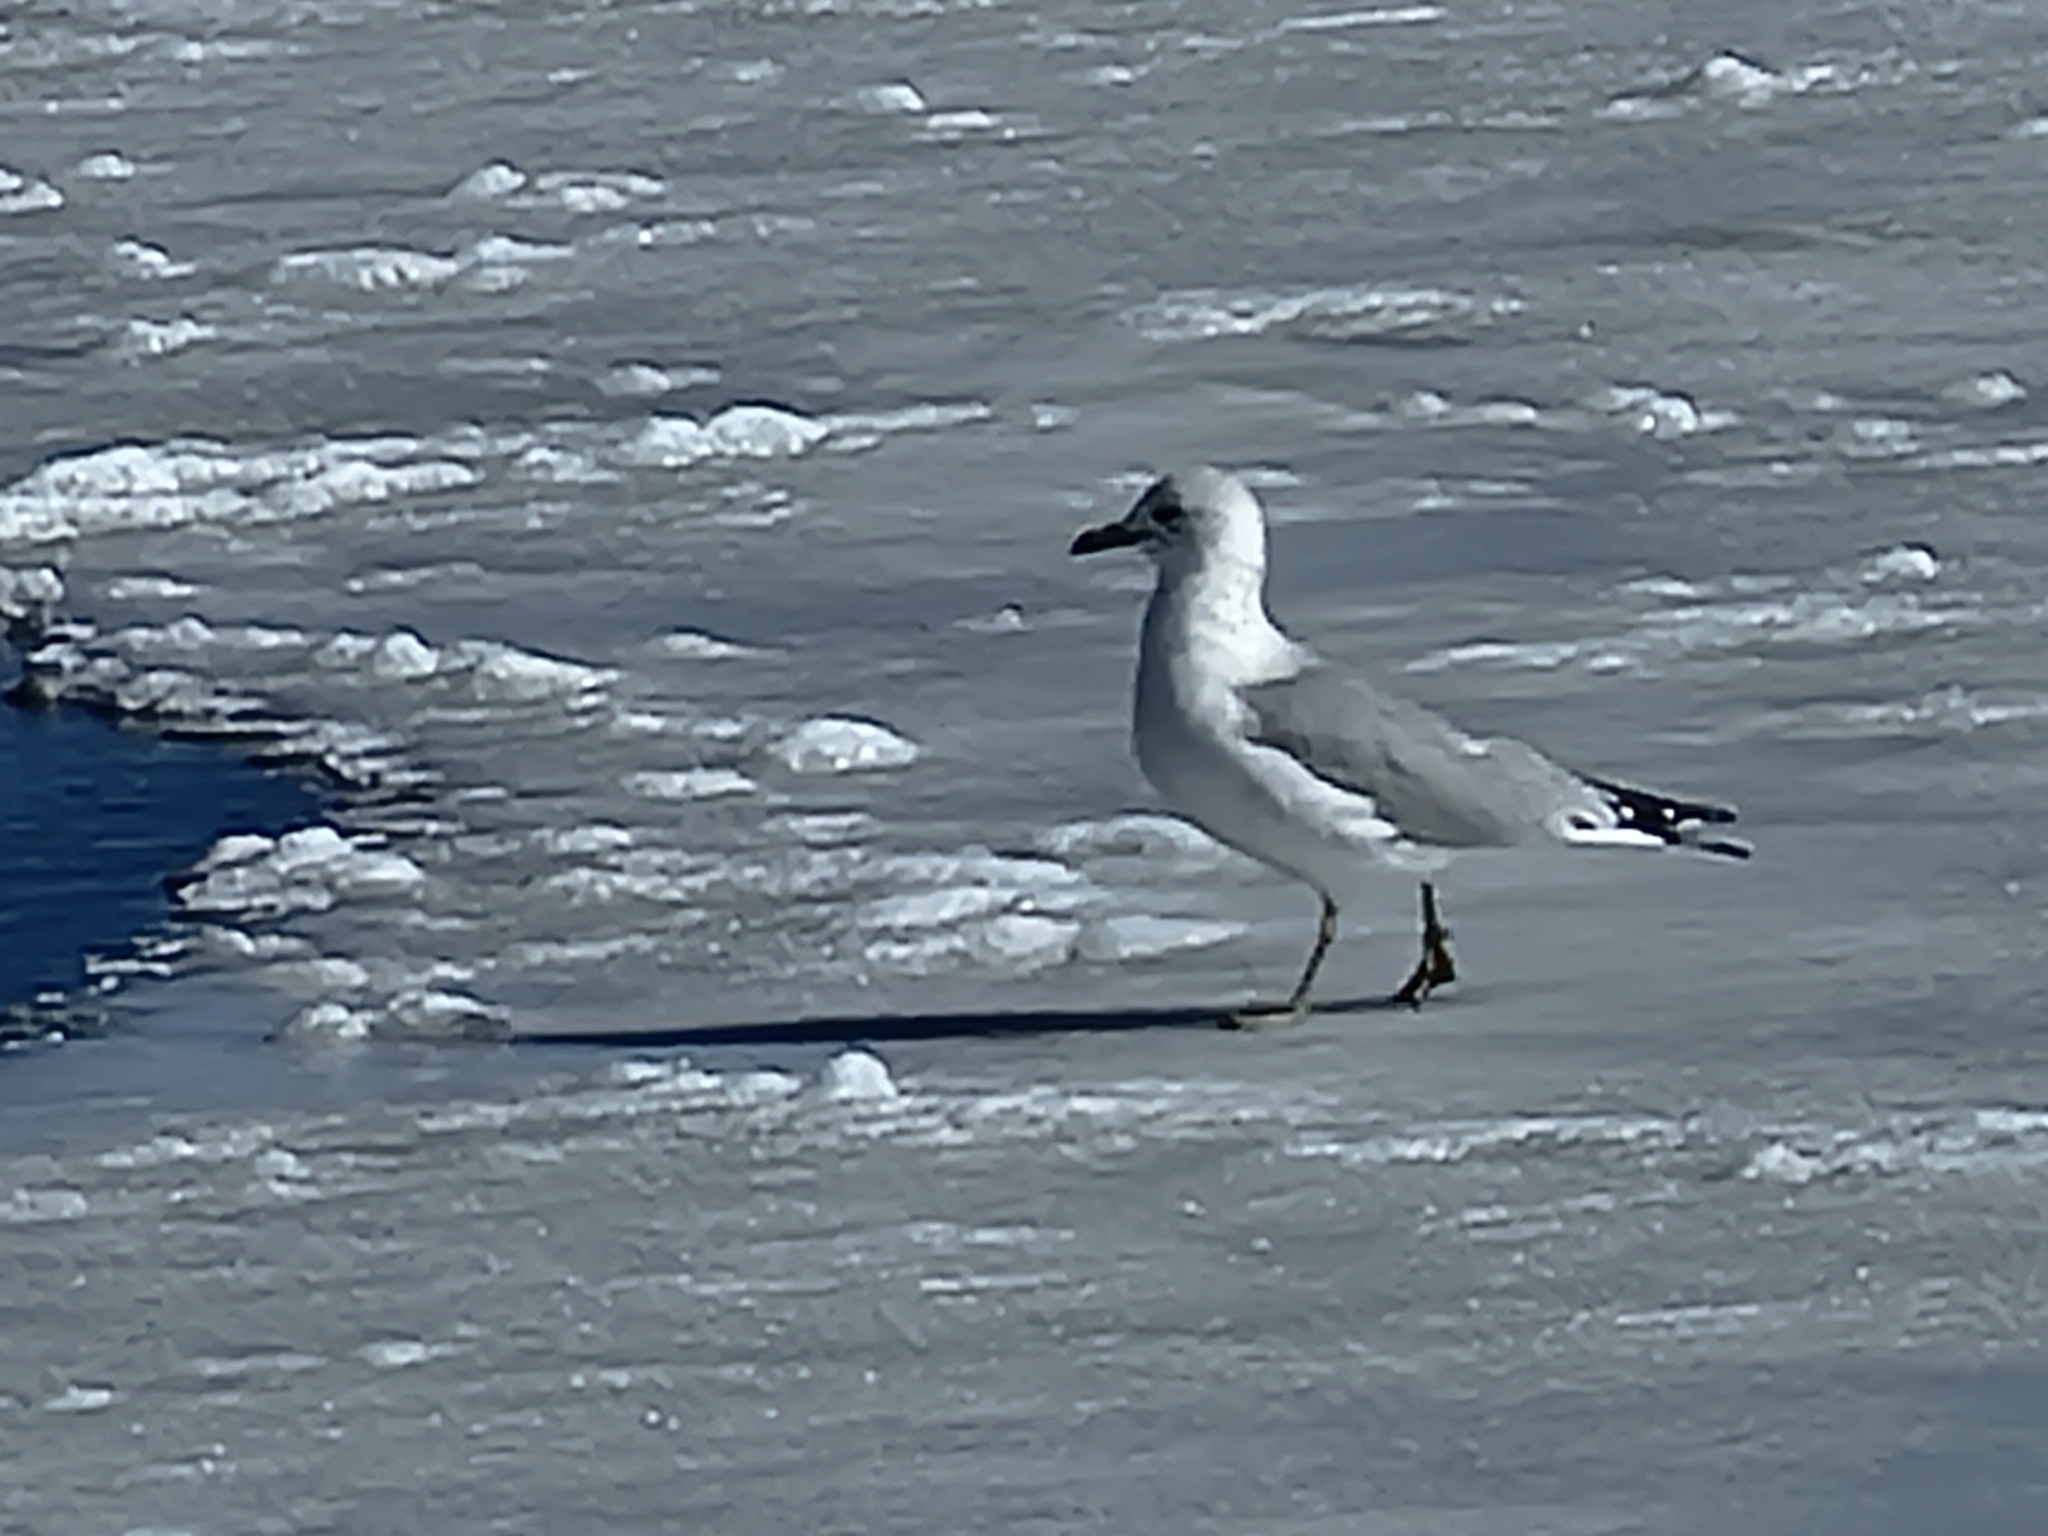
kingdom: Animalia
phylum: Chordata
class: Aves
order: Charadriiformes
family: Laridae
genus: Larus
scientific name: Larus delawarensis
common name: Ring-billed gull
